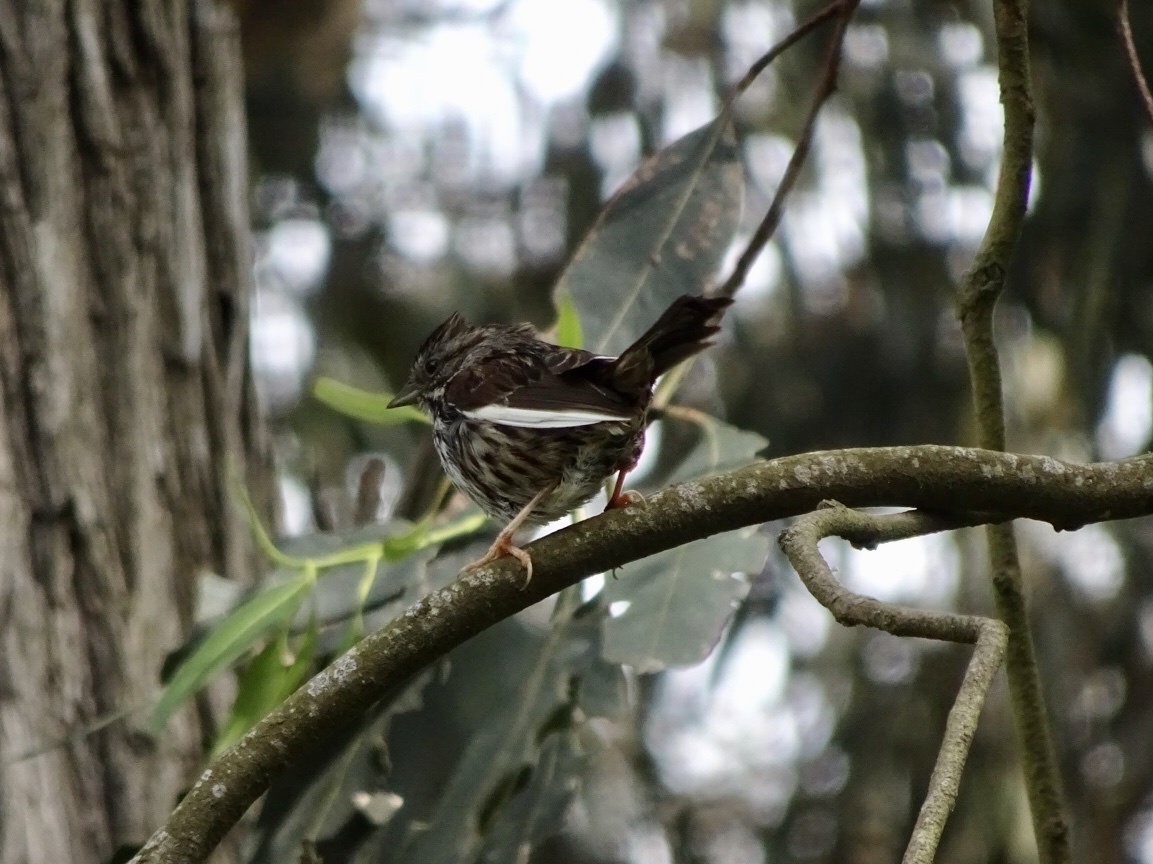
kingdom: Animalia
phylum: Chordata
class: Aves
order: Passeriformes
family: Passerellidae
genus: Melospiza
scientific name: Melospiza melodia
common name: Song sparrow
